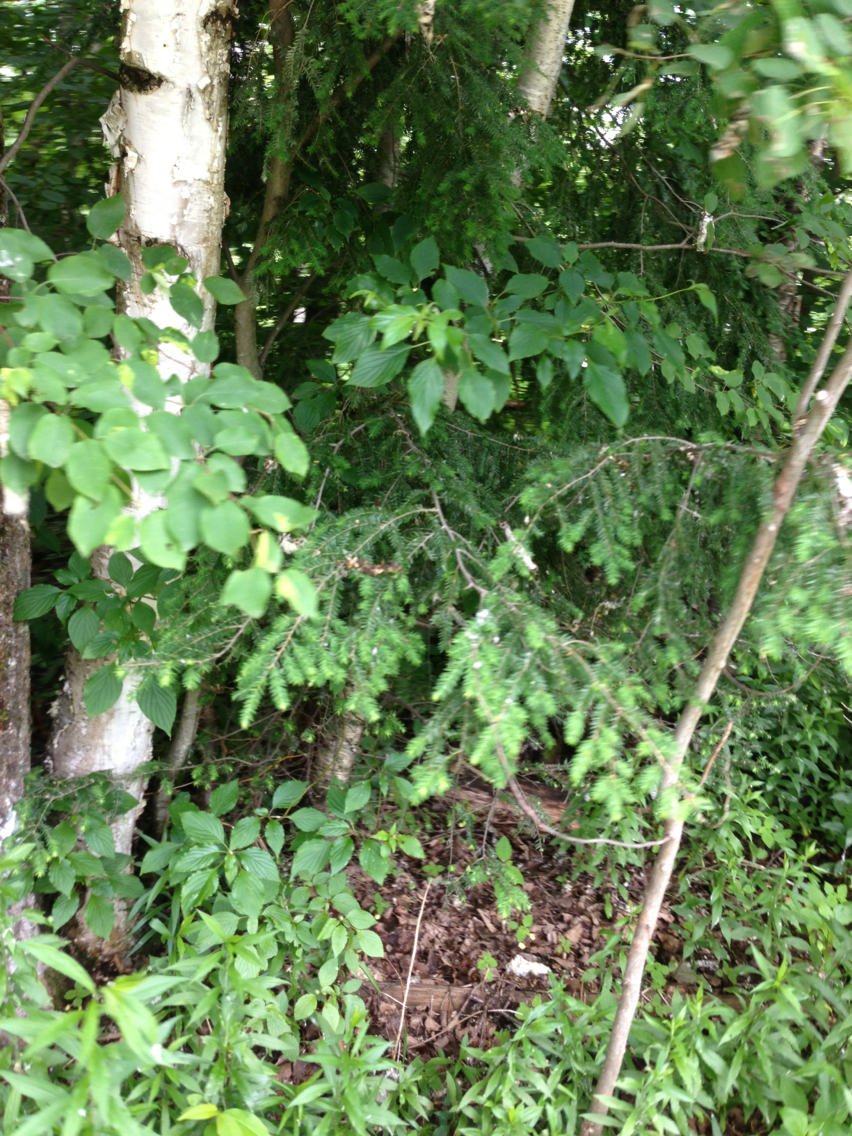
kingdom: Plantae
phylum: Tracheophyta
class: Pinopsida
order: Pinales
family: Pinaceae
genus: Tsuga
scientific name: Tsuga canadensis
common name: Eastern hemlock
